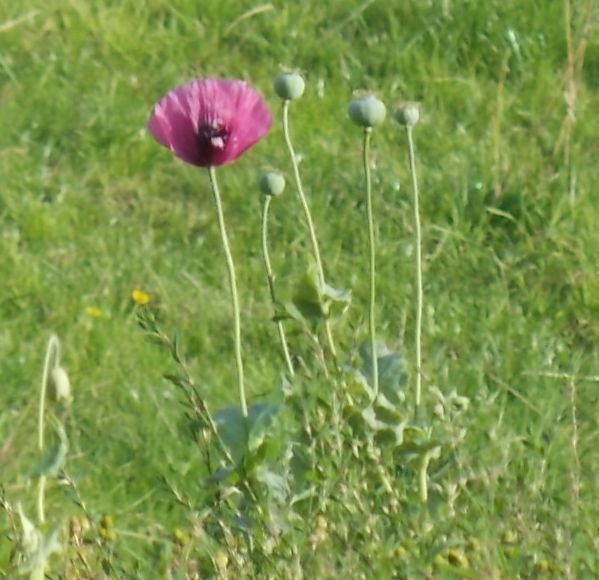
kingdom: Plantae
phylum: Tracheophyta
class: Magnoliopsida
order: Ranunculales
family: Papaveraceae
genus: Papaver
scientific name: Papaver somniferum
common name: Opium poppy
